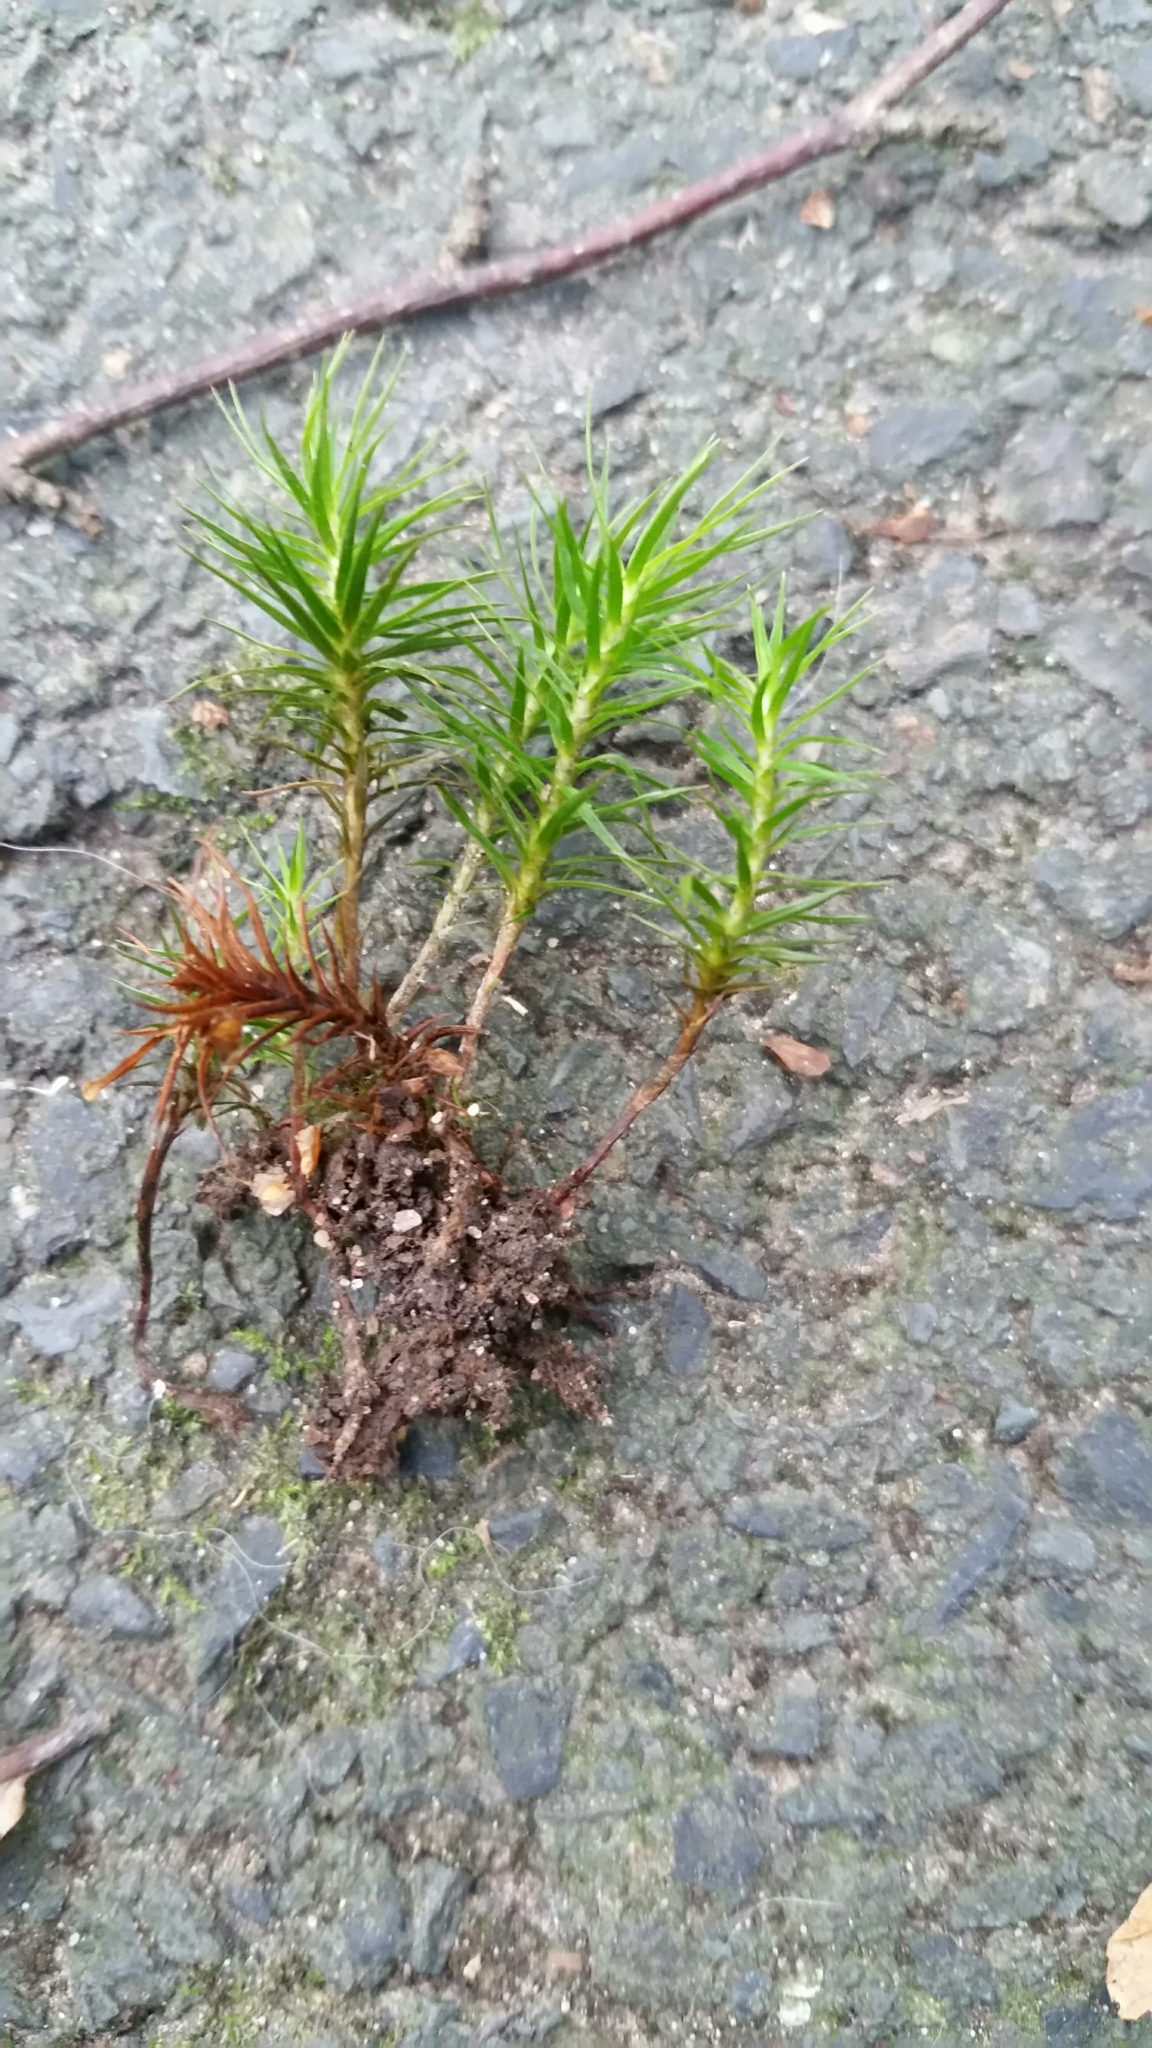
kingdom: Plantae
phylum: Bryophyta
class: Polytrichopsida
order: Polytrichales
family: Polytrichaceae
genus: Polytrichum
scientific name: Polytrichum formosum
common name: Bank haircap moss
